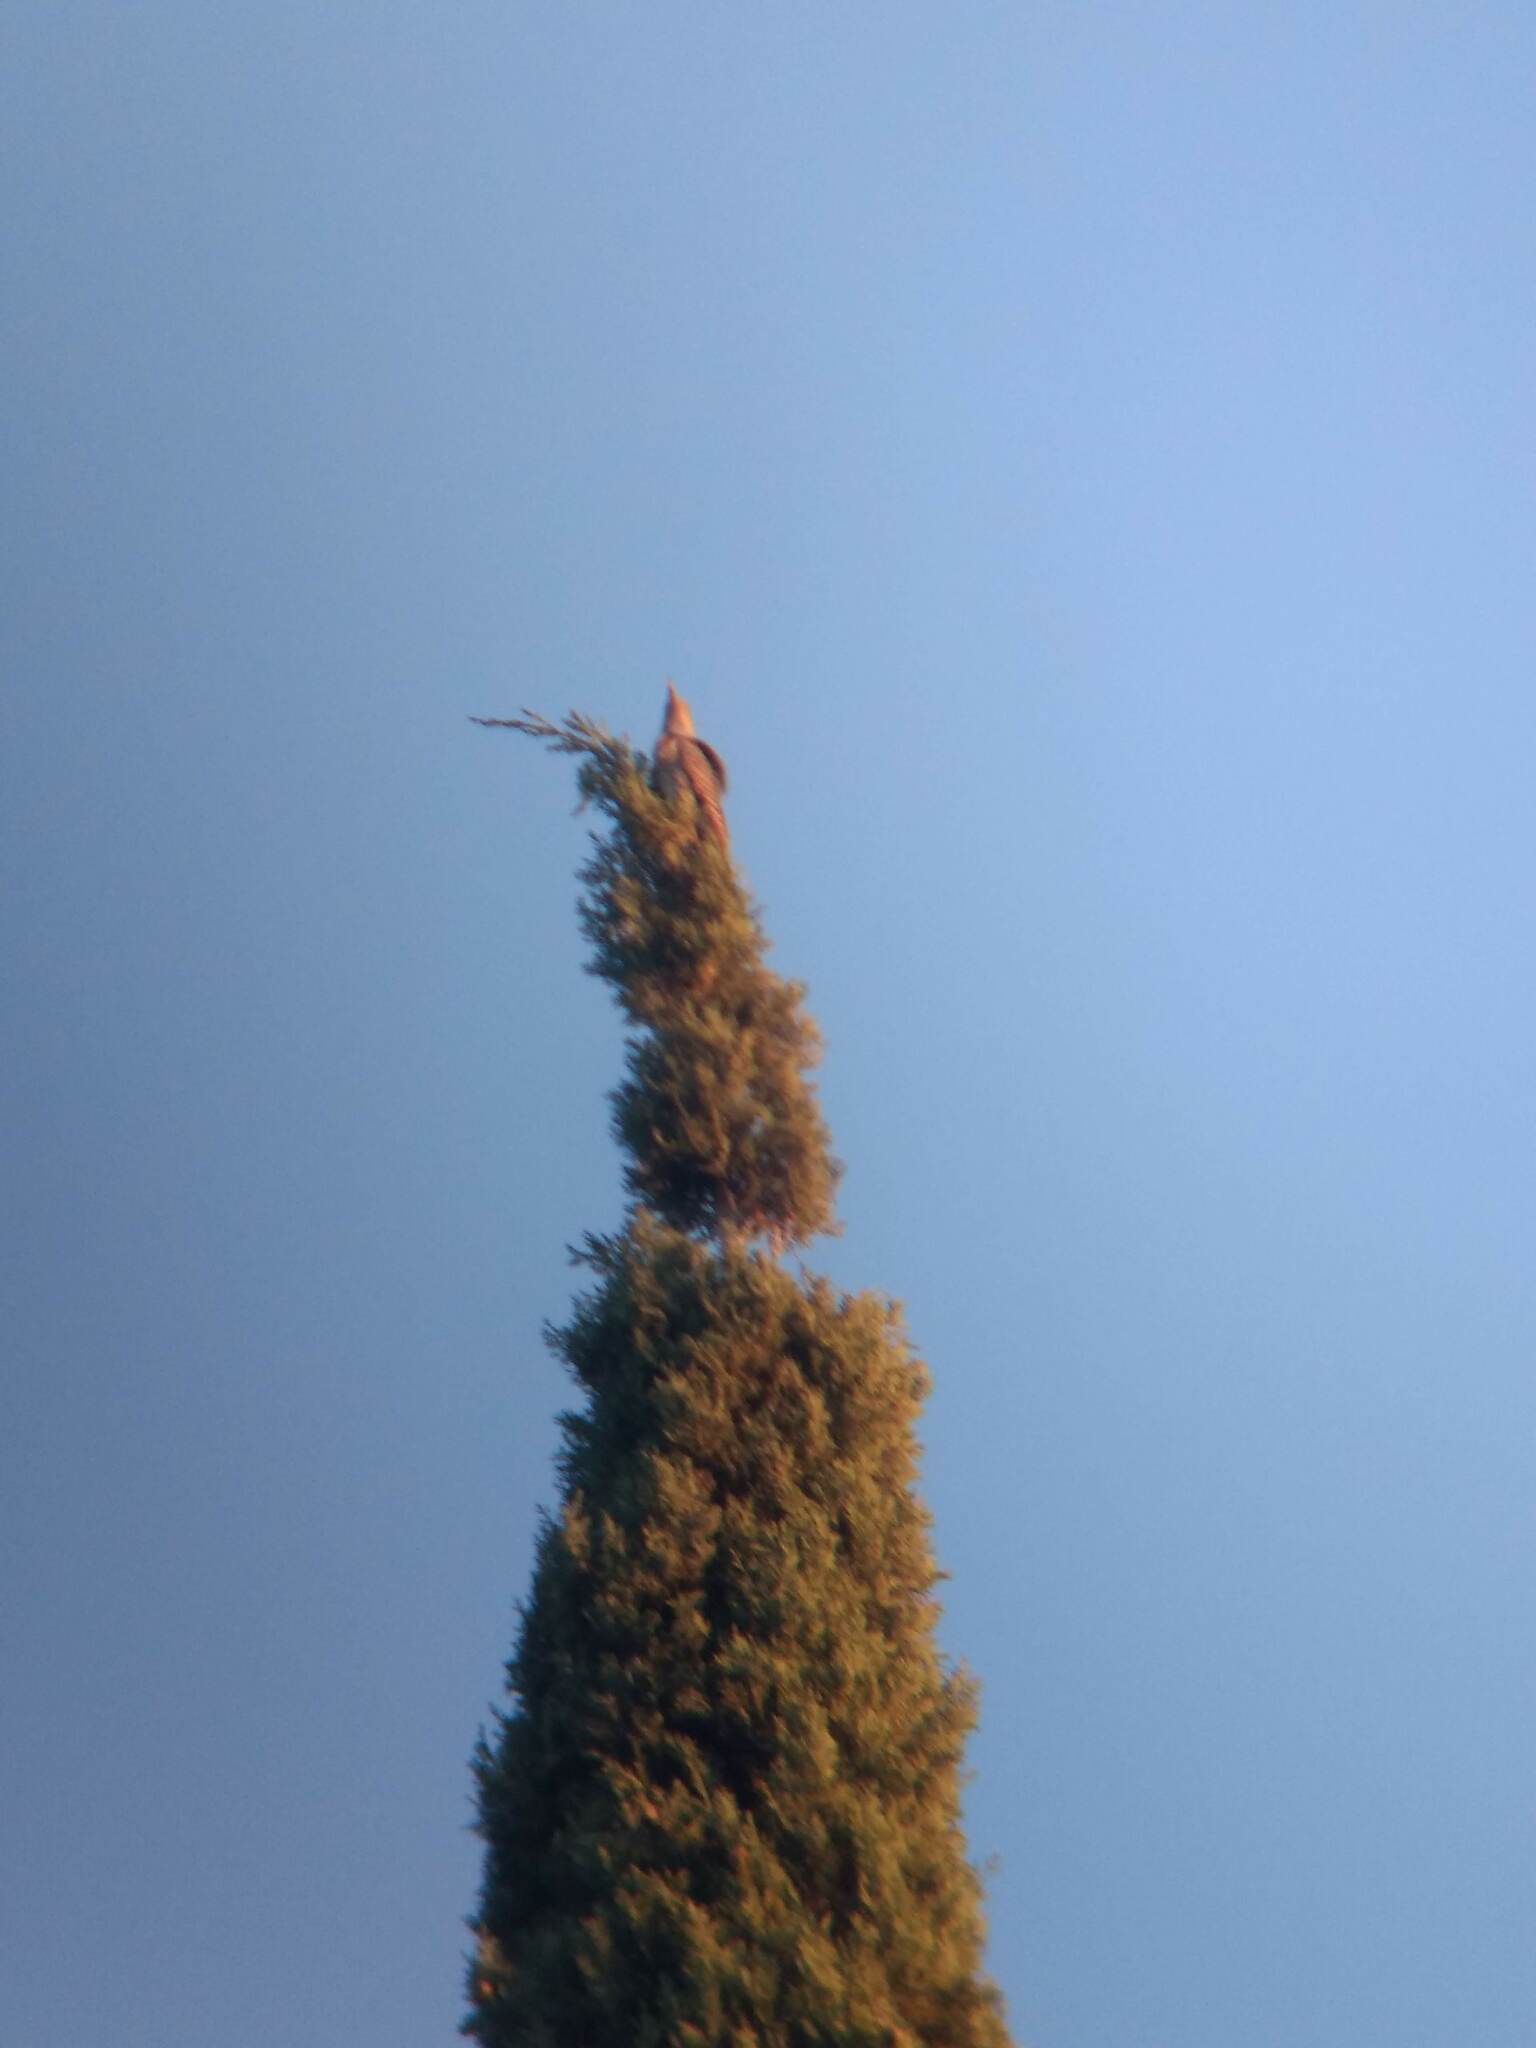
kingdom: Animalia
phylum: Chordata
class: Aves
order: Piciformes
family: Picidae
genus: Colaptes
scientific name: Colaptes auratus
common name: Northern flicker
